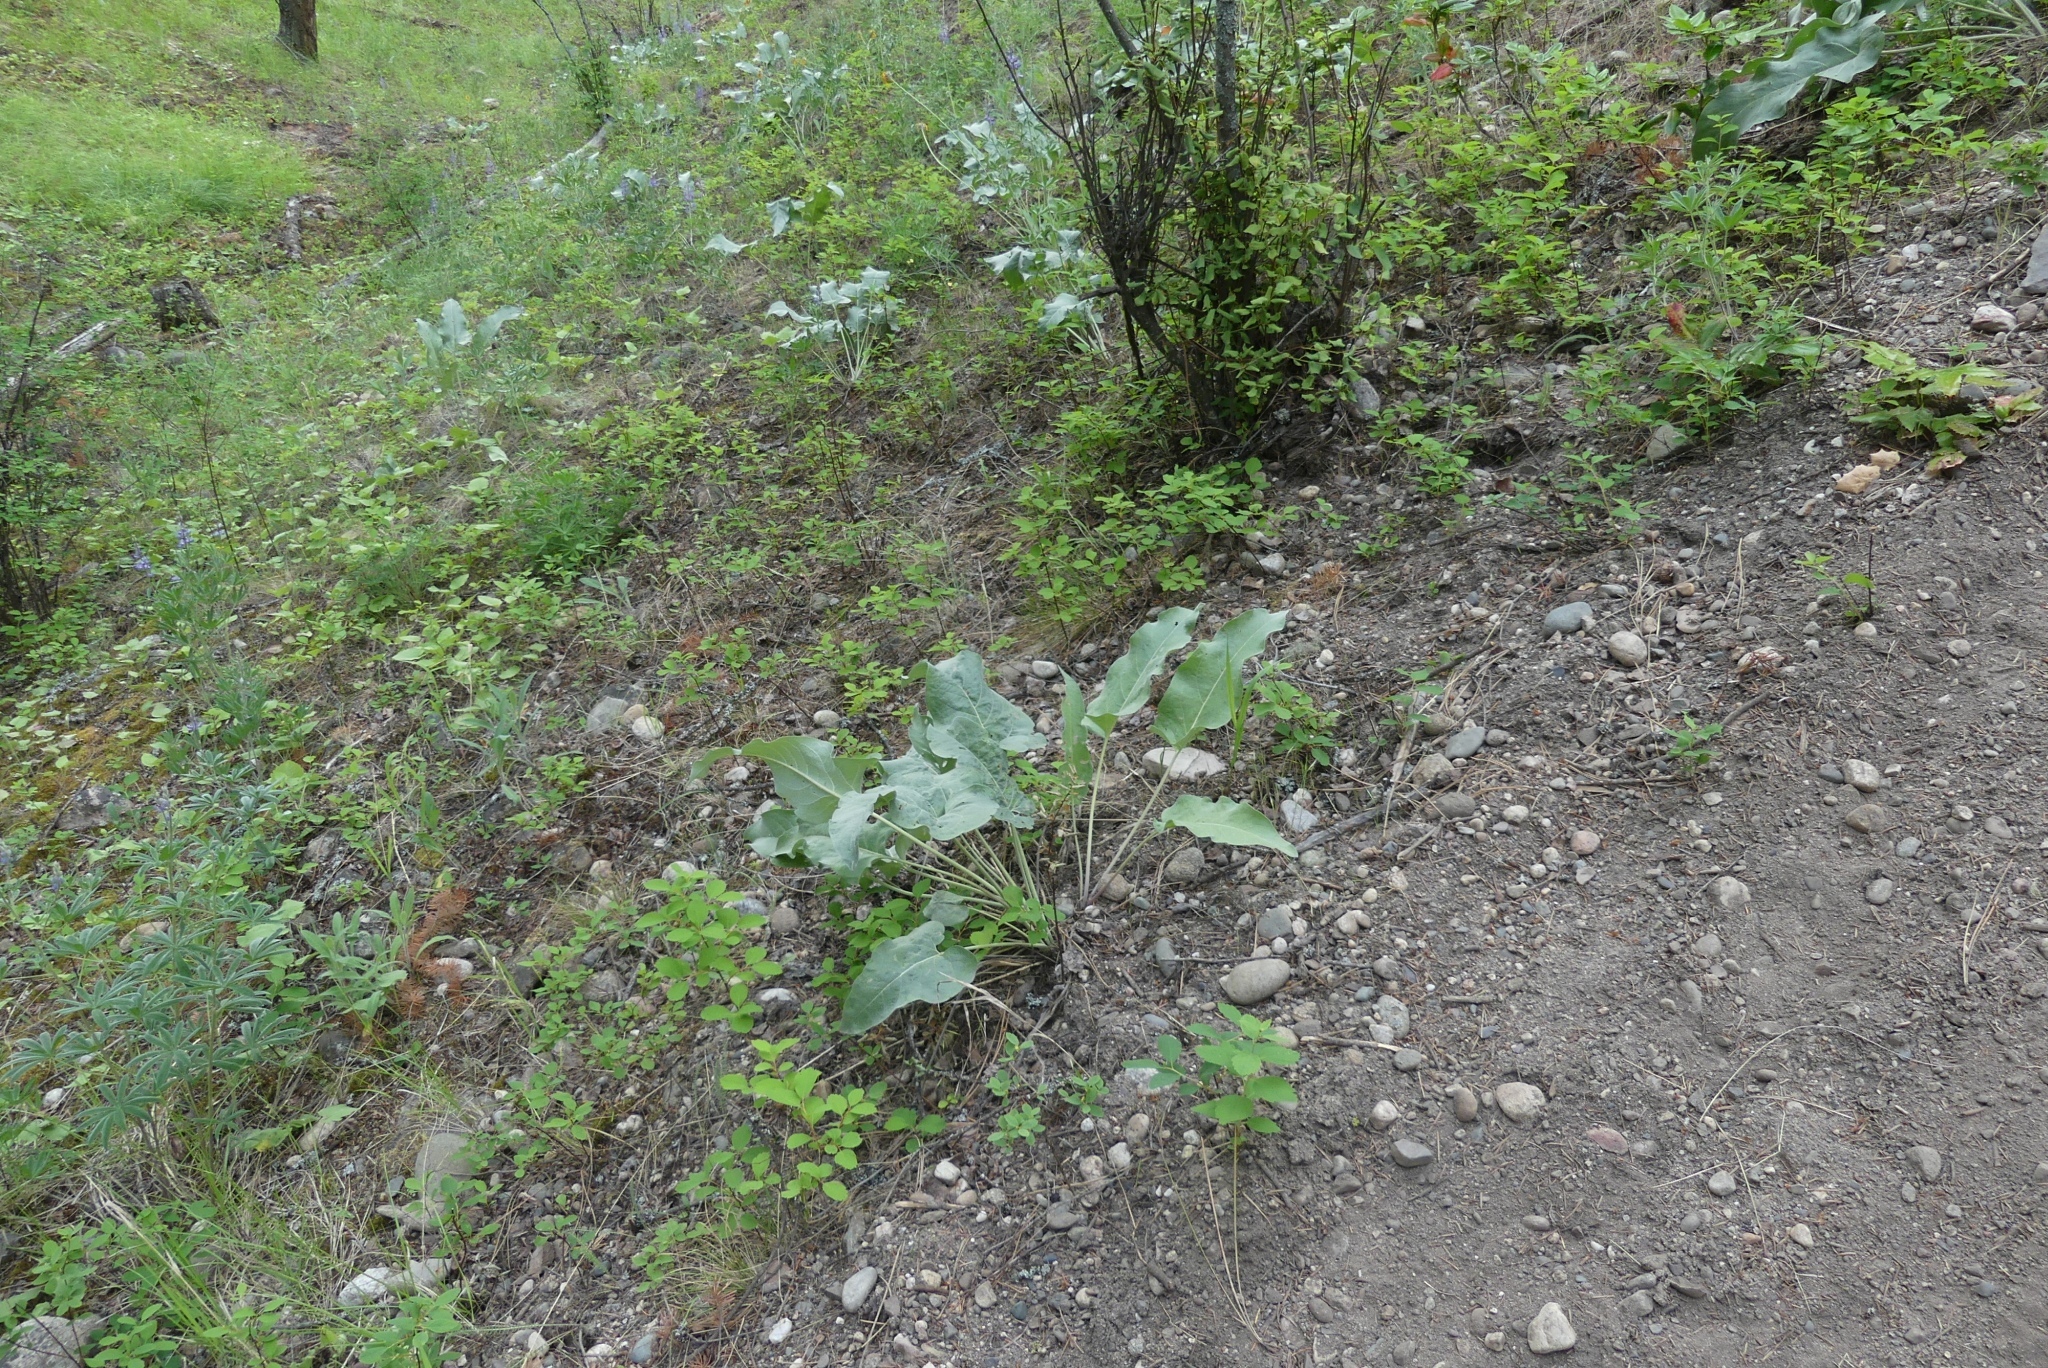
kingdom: Plantae
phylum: Tracheophyta
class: Magnoliopsida
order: Asterales
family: Asteraceae
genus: Wyethia
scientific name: Wyethia sagittata
